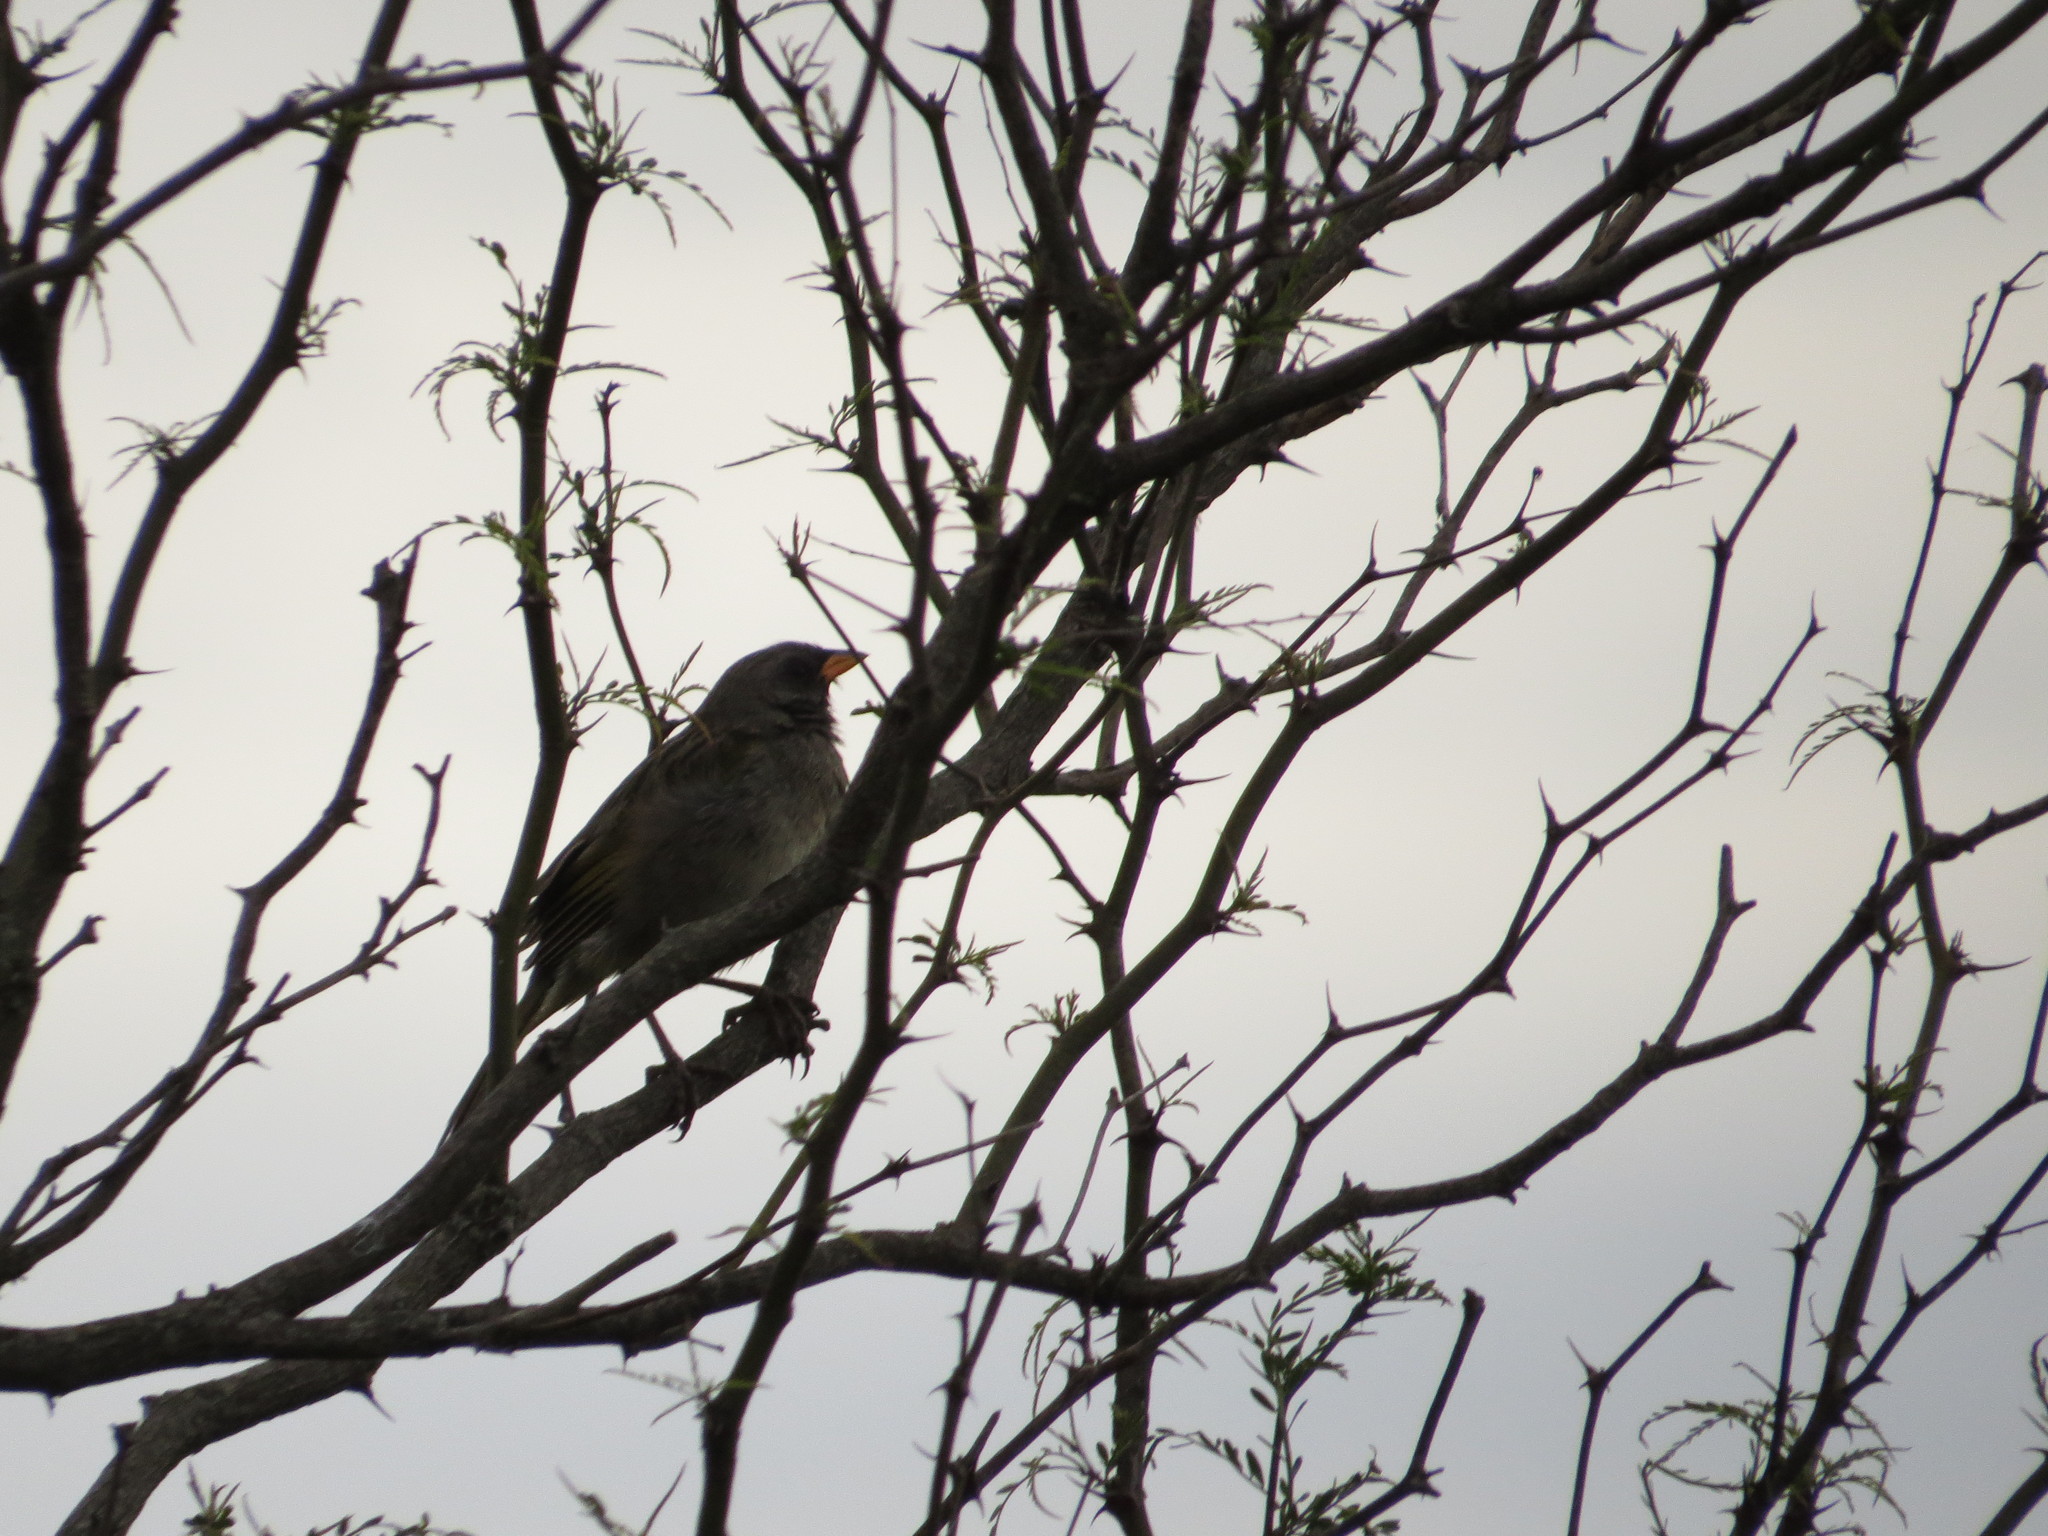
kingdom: Animalia
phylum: Chordata
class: Aves
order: Passeriformes
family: Thraupidae
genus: Embernagra
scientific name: Embernagra platensis
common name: Pampa finch
